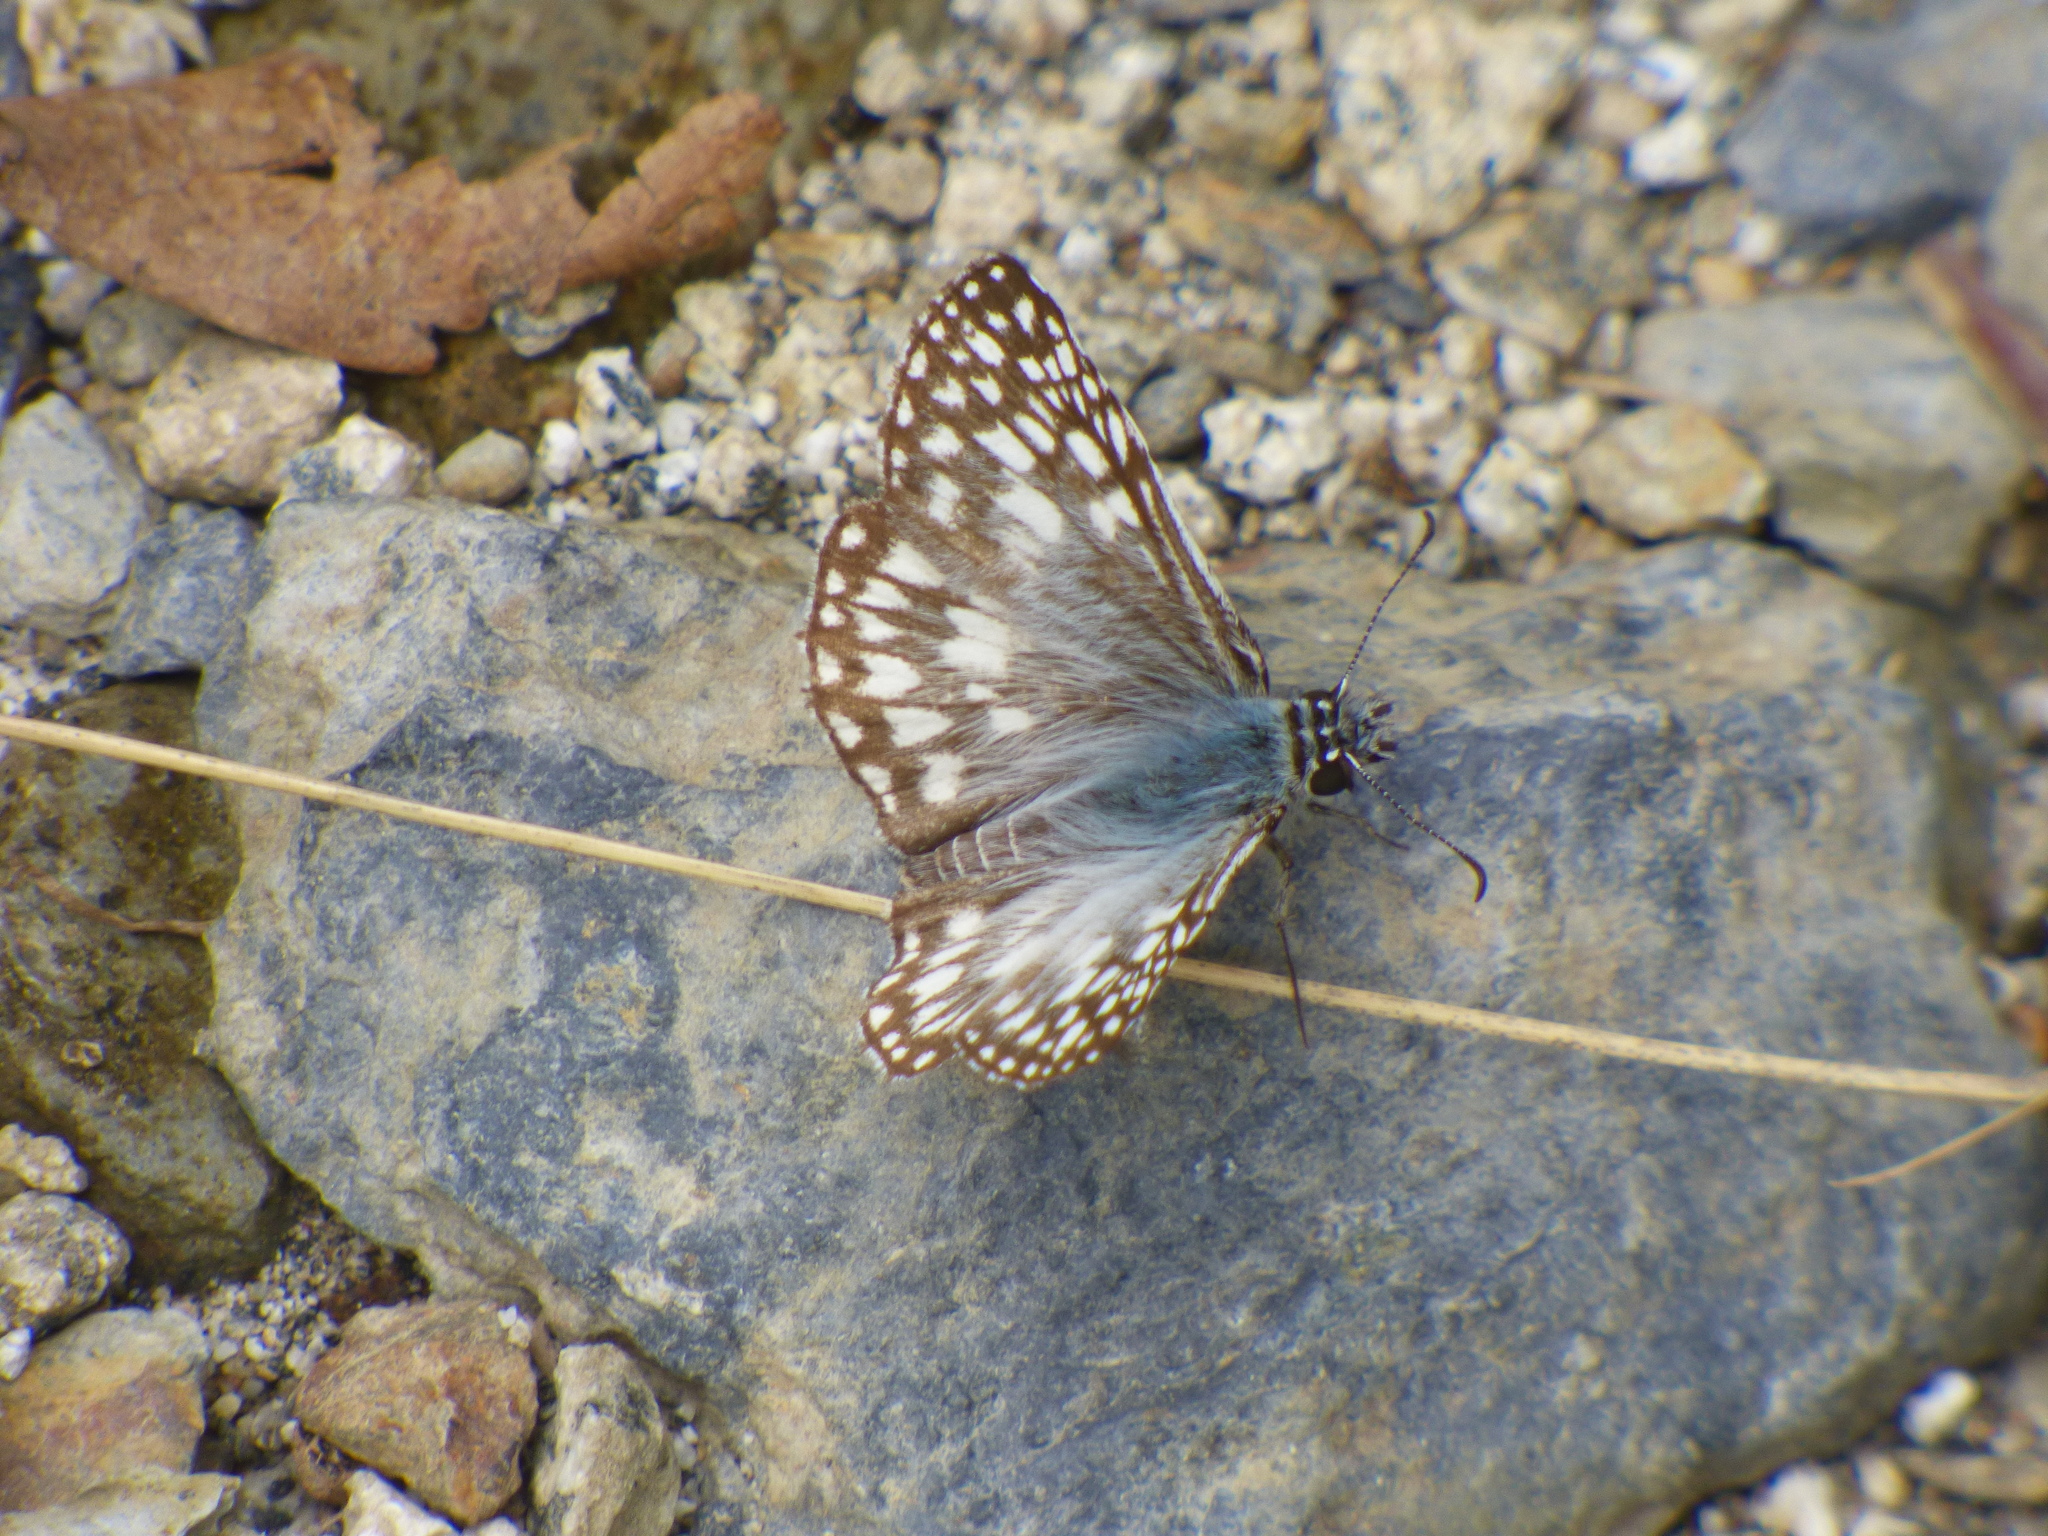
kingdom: Animalia
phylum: Arthropoda
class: Insecta
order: Lepidoptera
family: Hesperiidae
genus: Pyrgus
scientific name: Pyrgus oileus
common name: Tropical checkered-skipper
